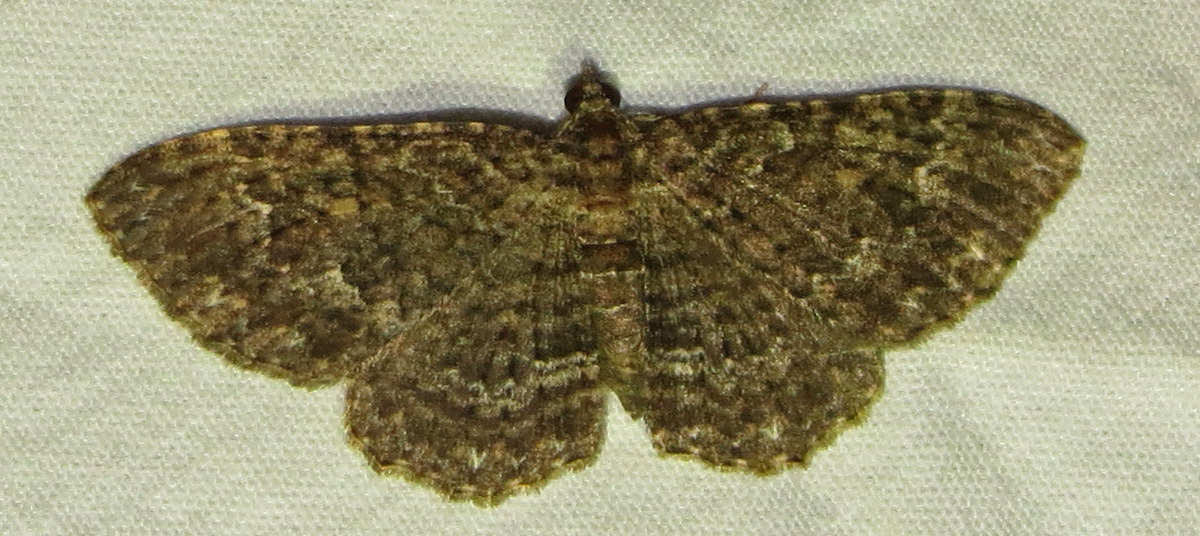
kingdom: Animalia
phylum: Arthropoda
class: Insecta
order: Lepidoptera
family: Geometridae
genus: Disclisioprocta
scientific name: Disclisioprocta stellata
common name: Somber carpet
